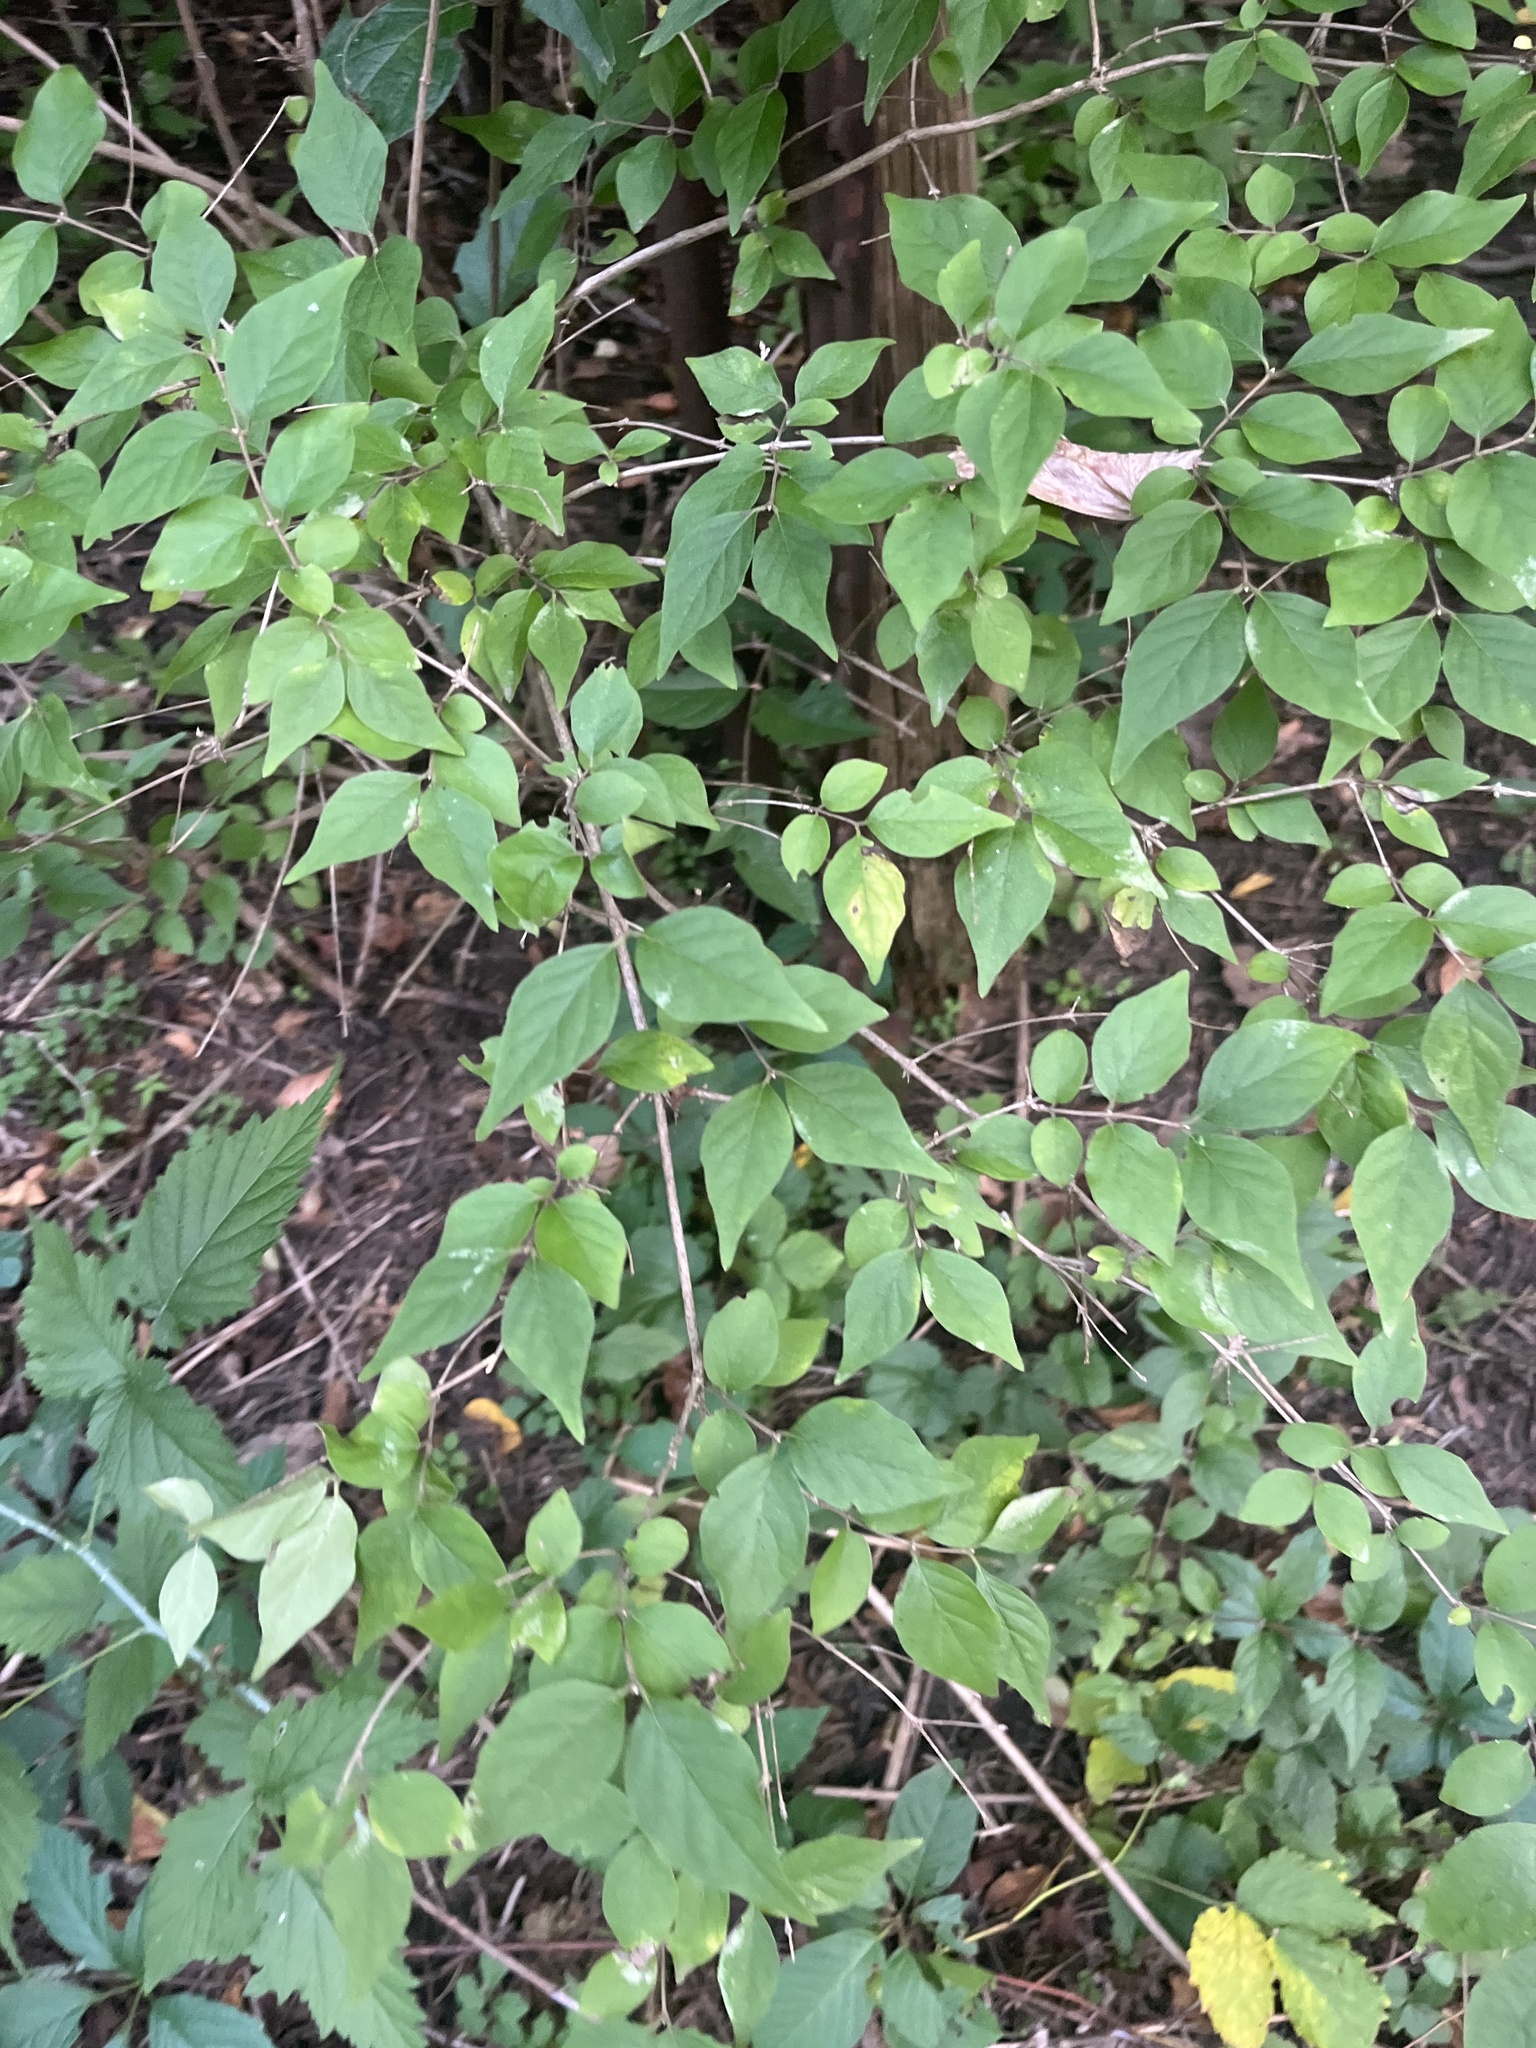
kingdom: Plantae
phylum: Tracheophyta
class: Magnoliopsida
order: Dipsacales
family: Caprifoliaceae
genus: Lonicera
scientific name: Lonicera maackii
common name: Amur honeysuckle
